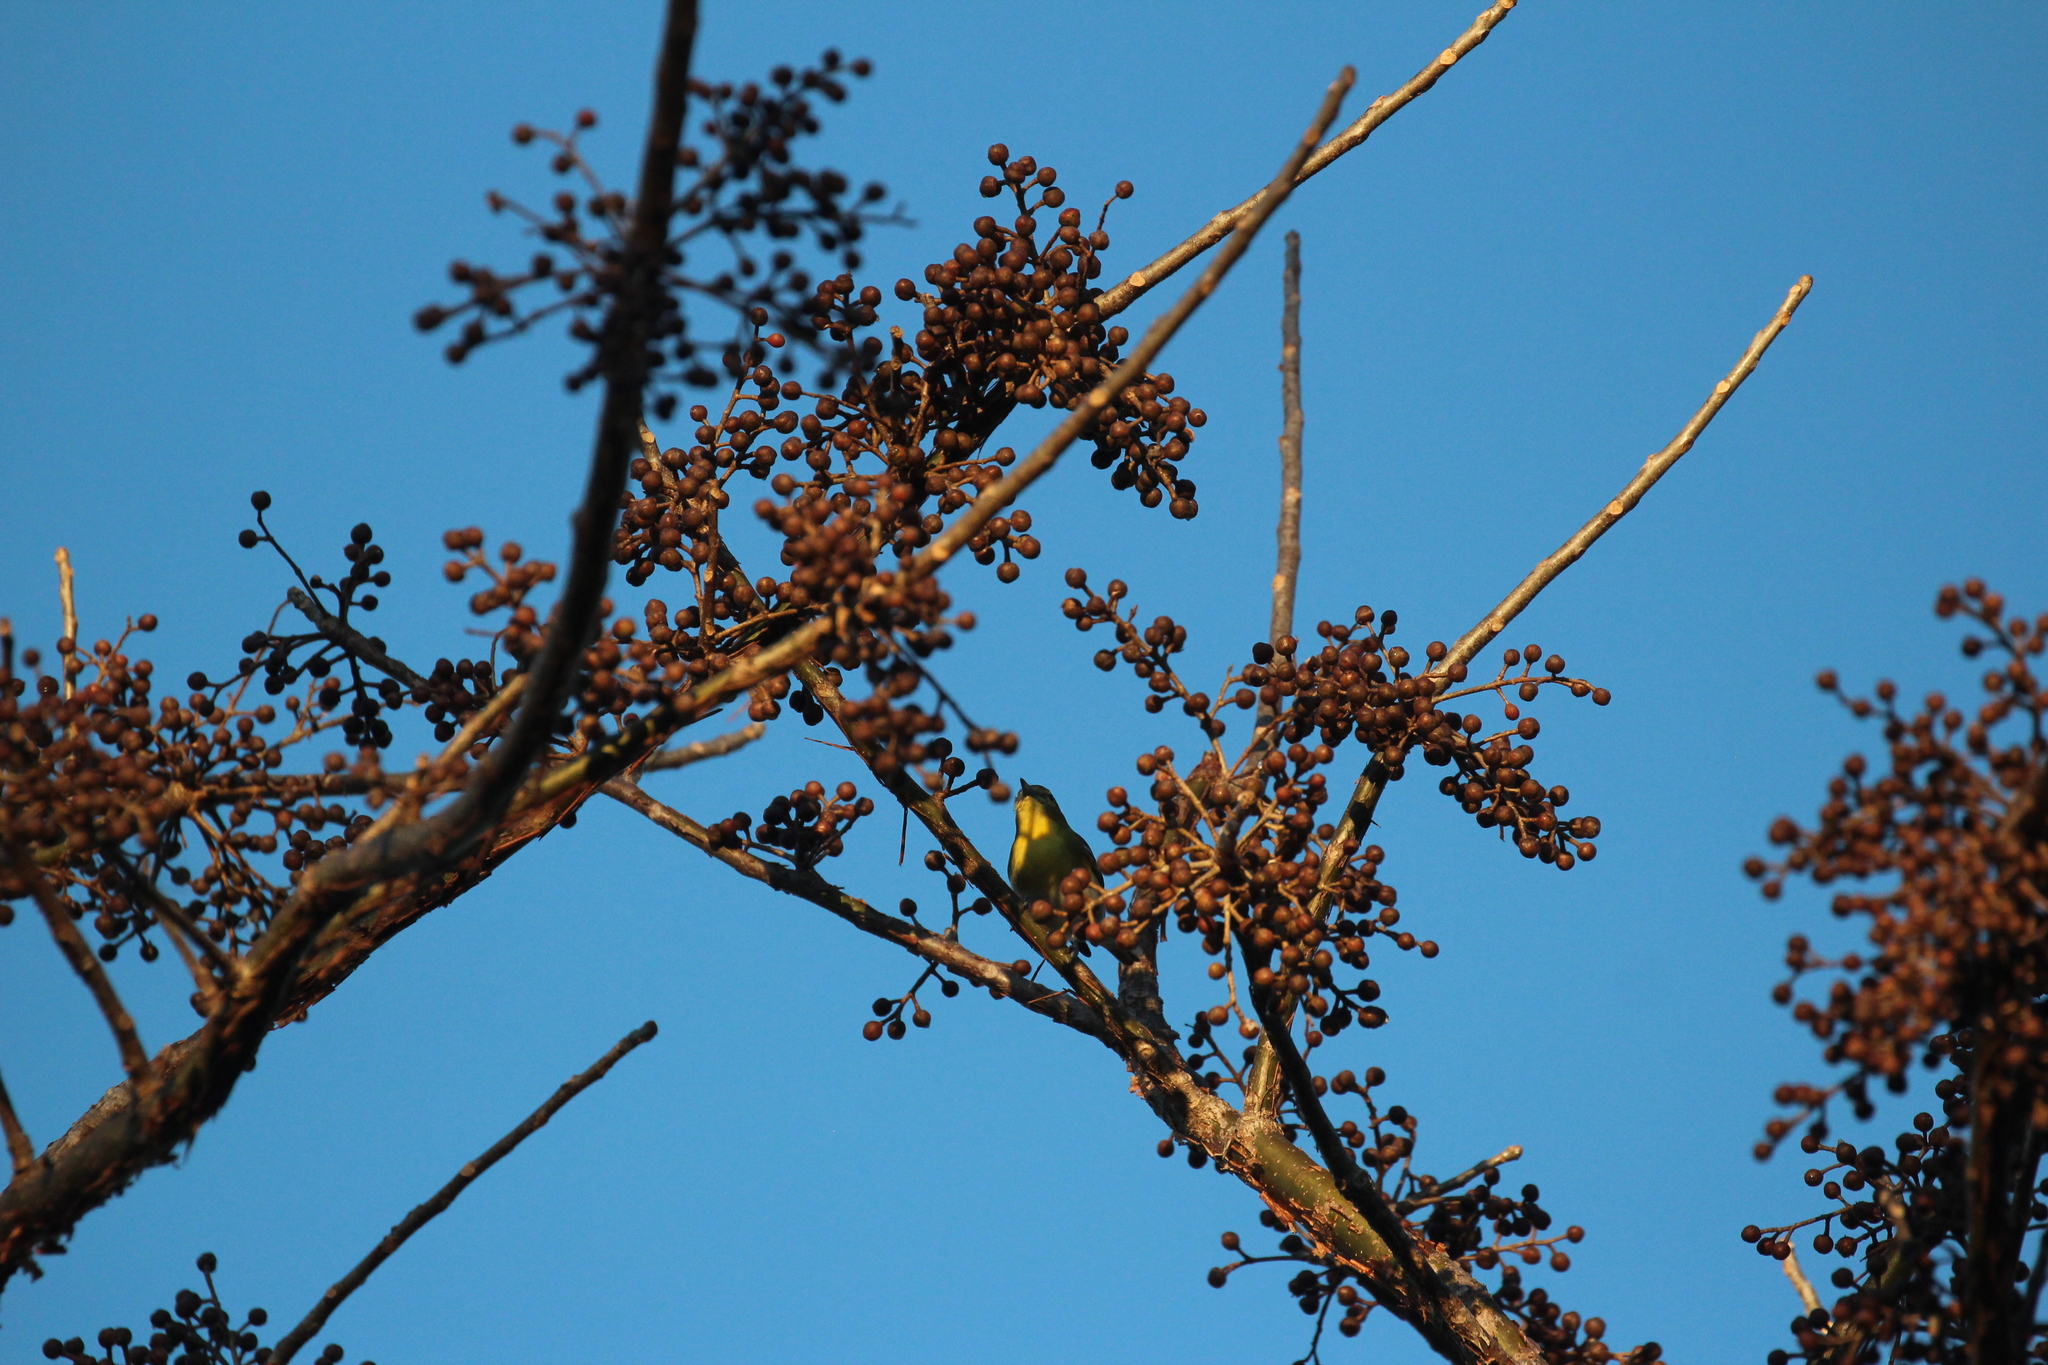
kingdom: Animalia
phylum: Chordata
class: Aves
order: Passeriformes
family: Vireonidae
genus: Vireo
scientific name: Vireo flavifrons
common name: Yellow-throated vireo
